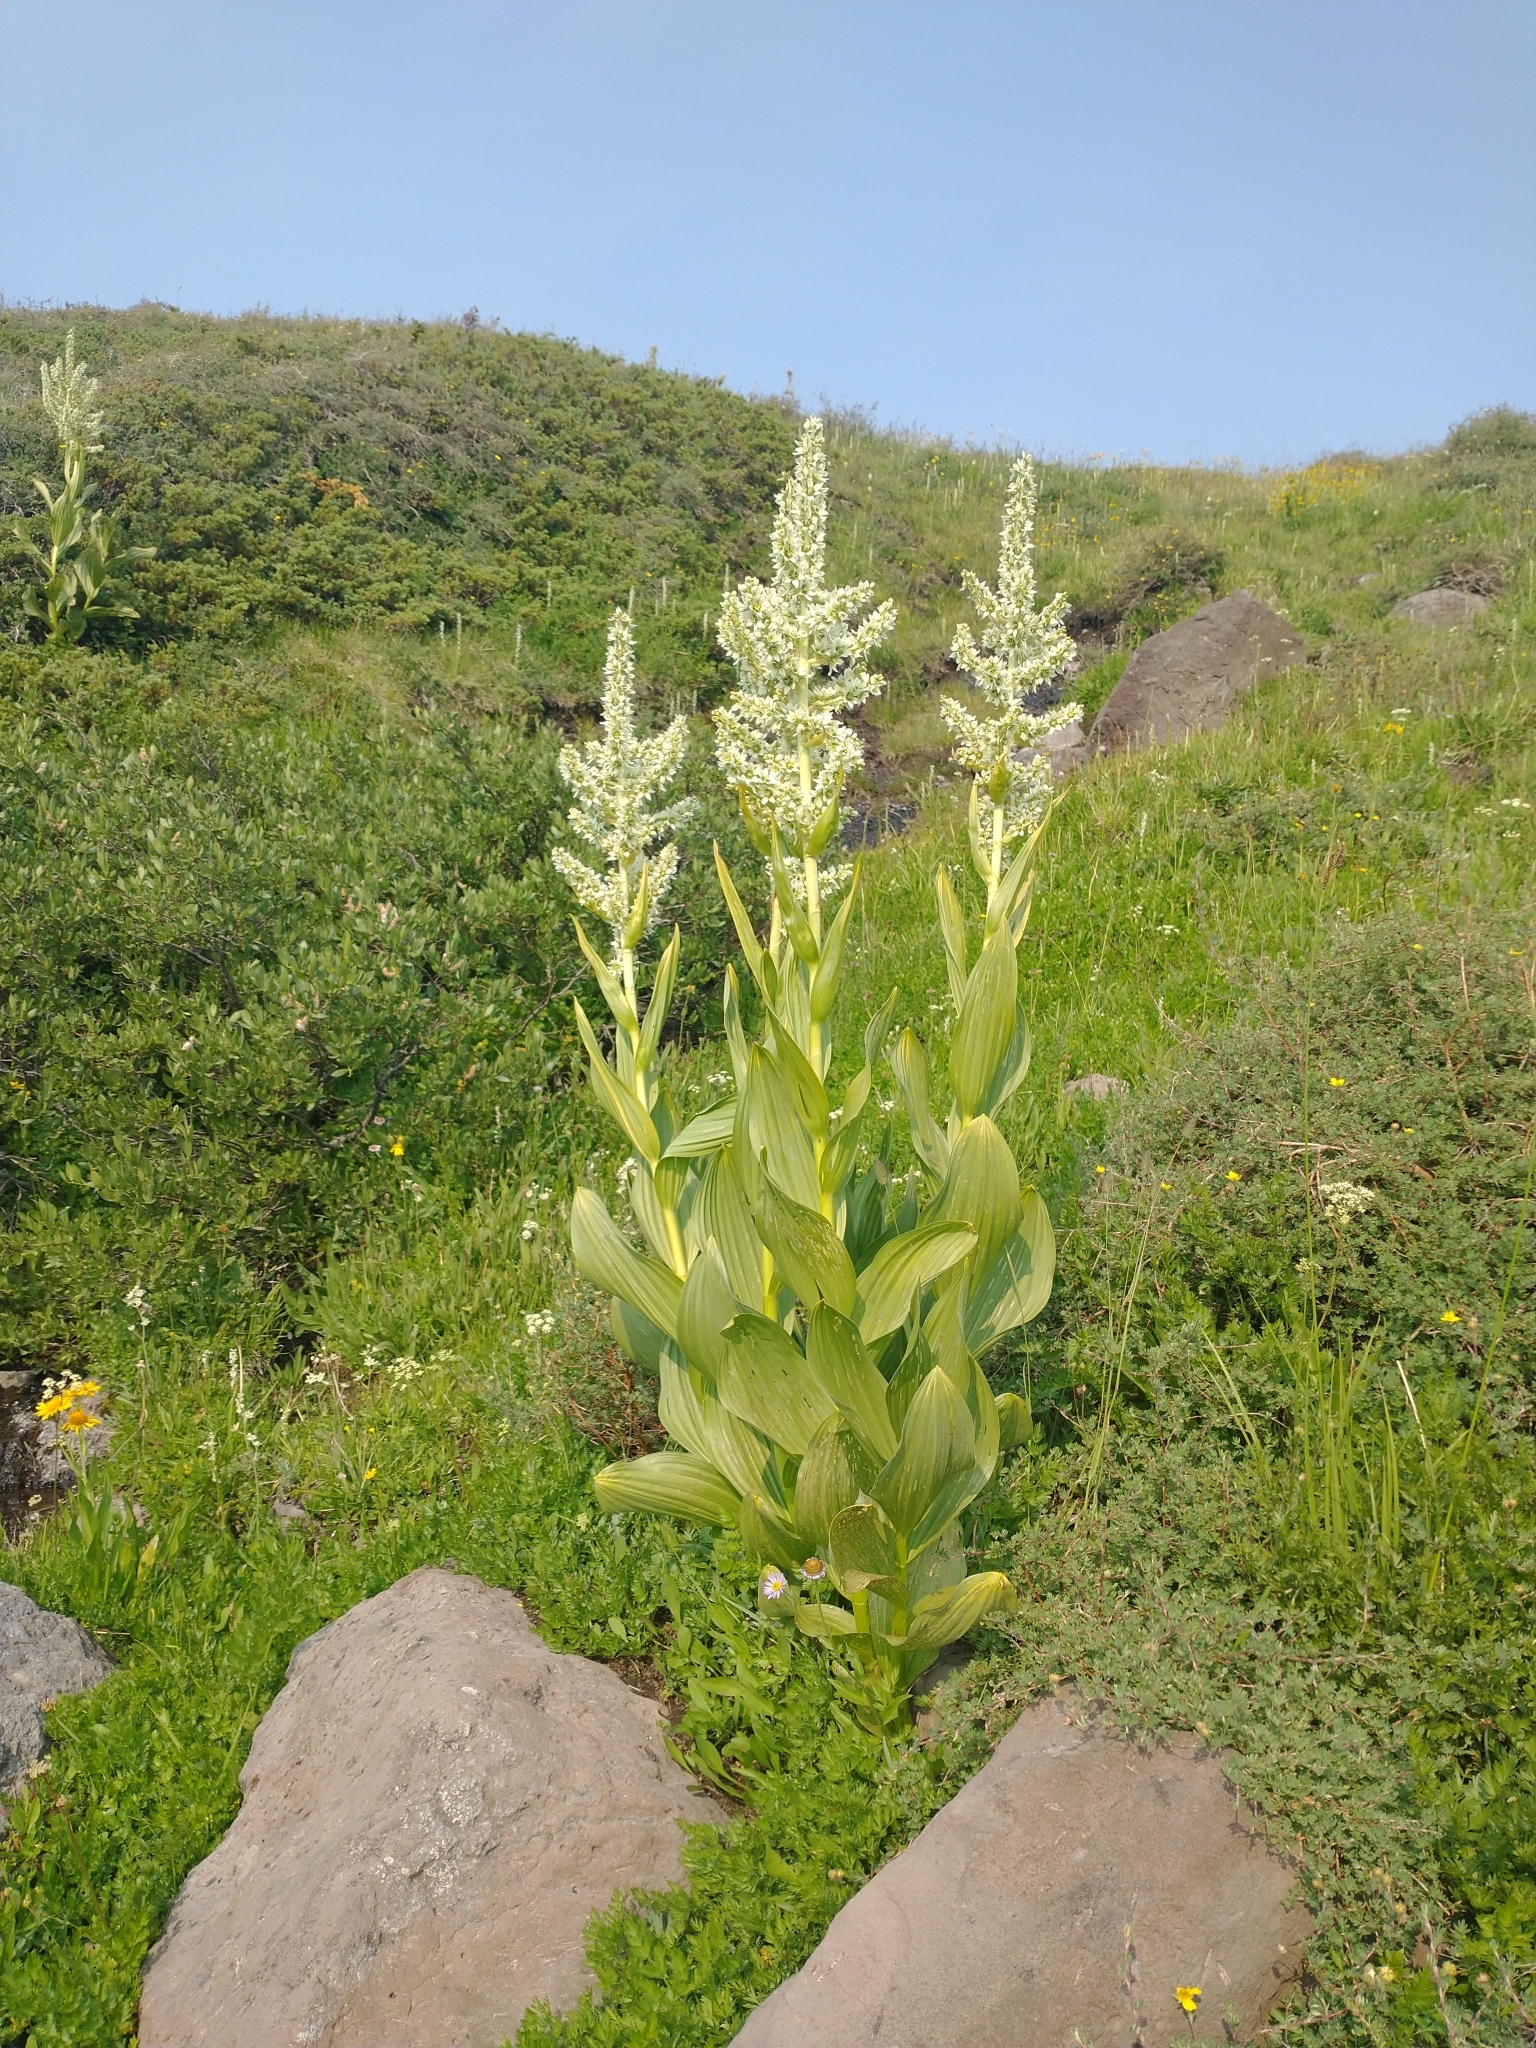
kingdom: Plantae
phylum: Tracheophyta
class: Liliopsida
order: Liliales
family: Melanthiaceae
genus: Veratrum
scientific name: Veratrum californicum
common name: California veratrum
